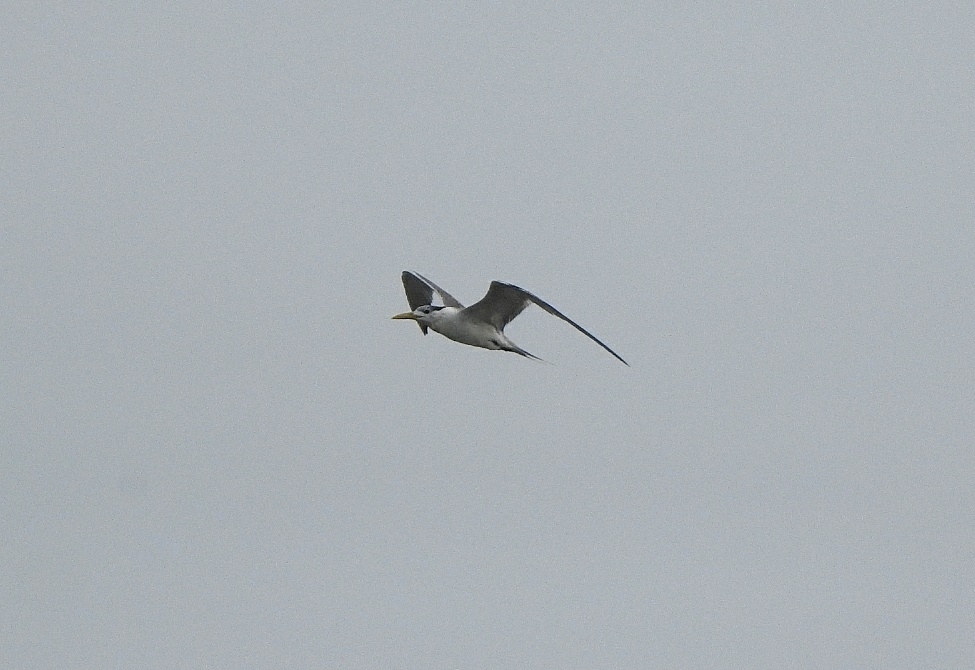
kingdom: Animalia
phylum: Chordata
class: Aves
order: Charadriiformes
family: Laridae
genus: Thalasseus
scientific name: Thalasseus bergii
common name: Greater crested tern
